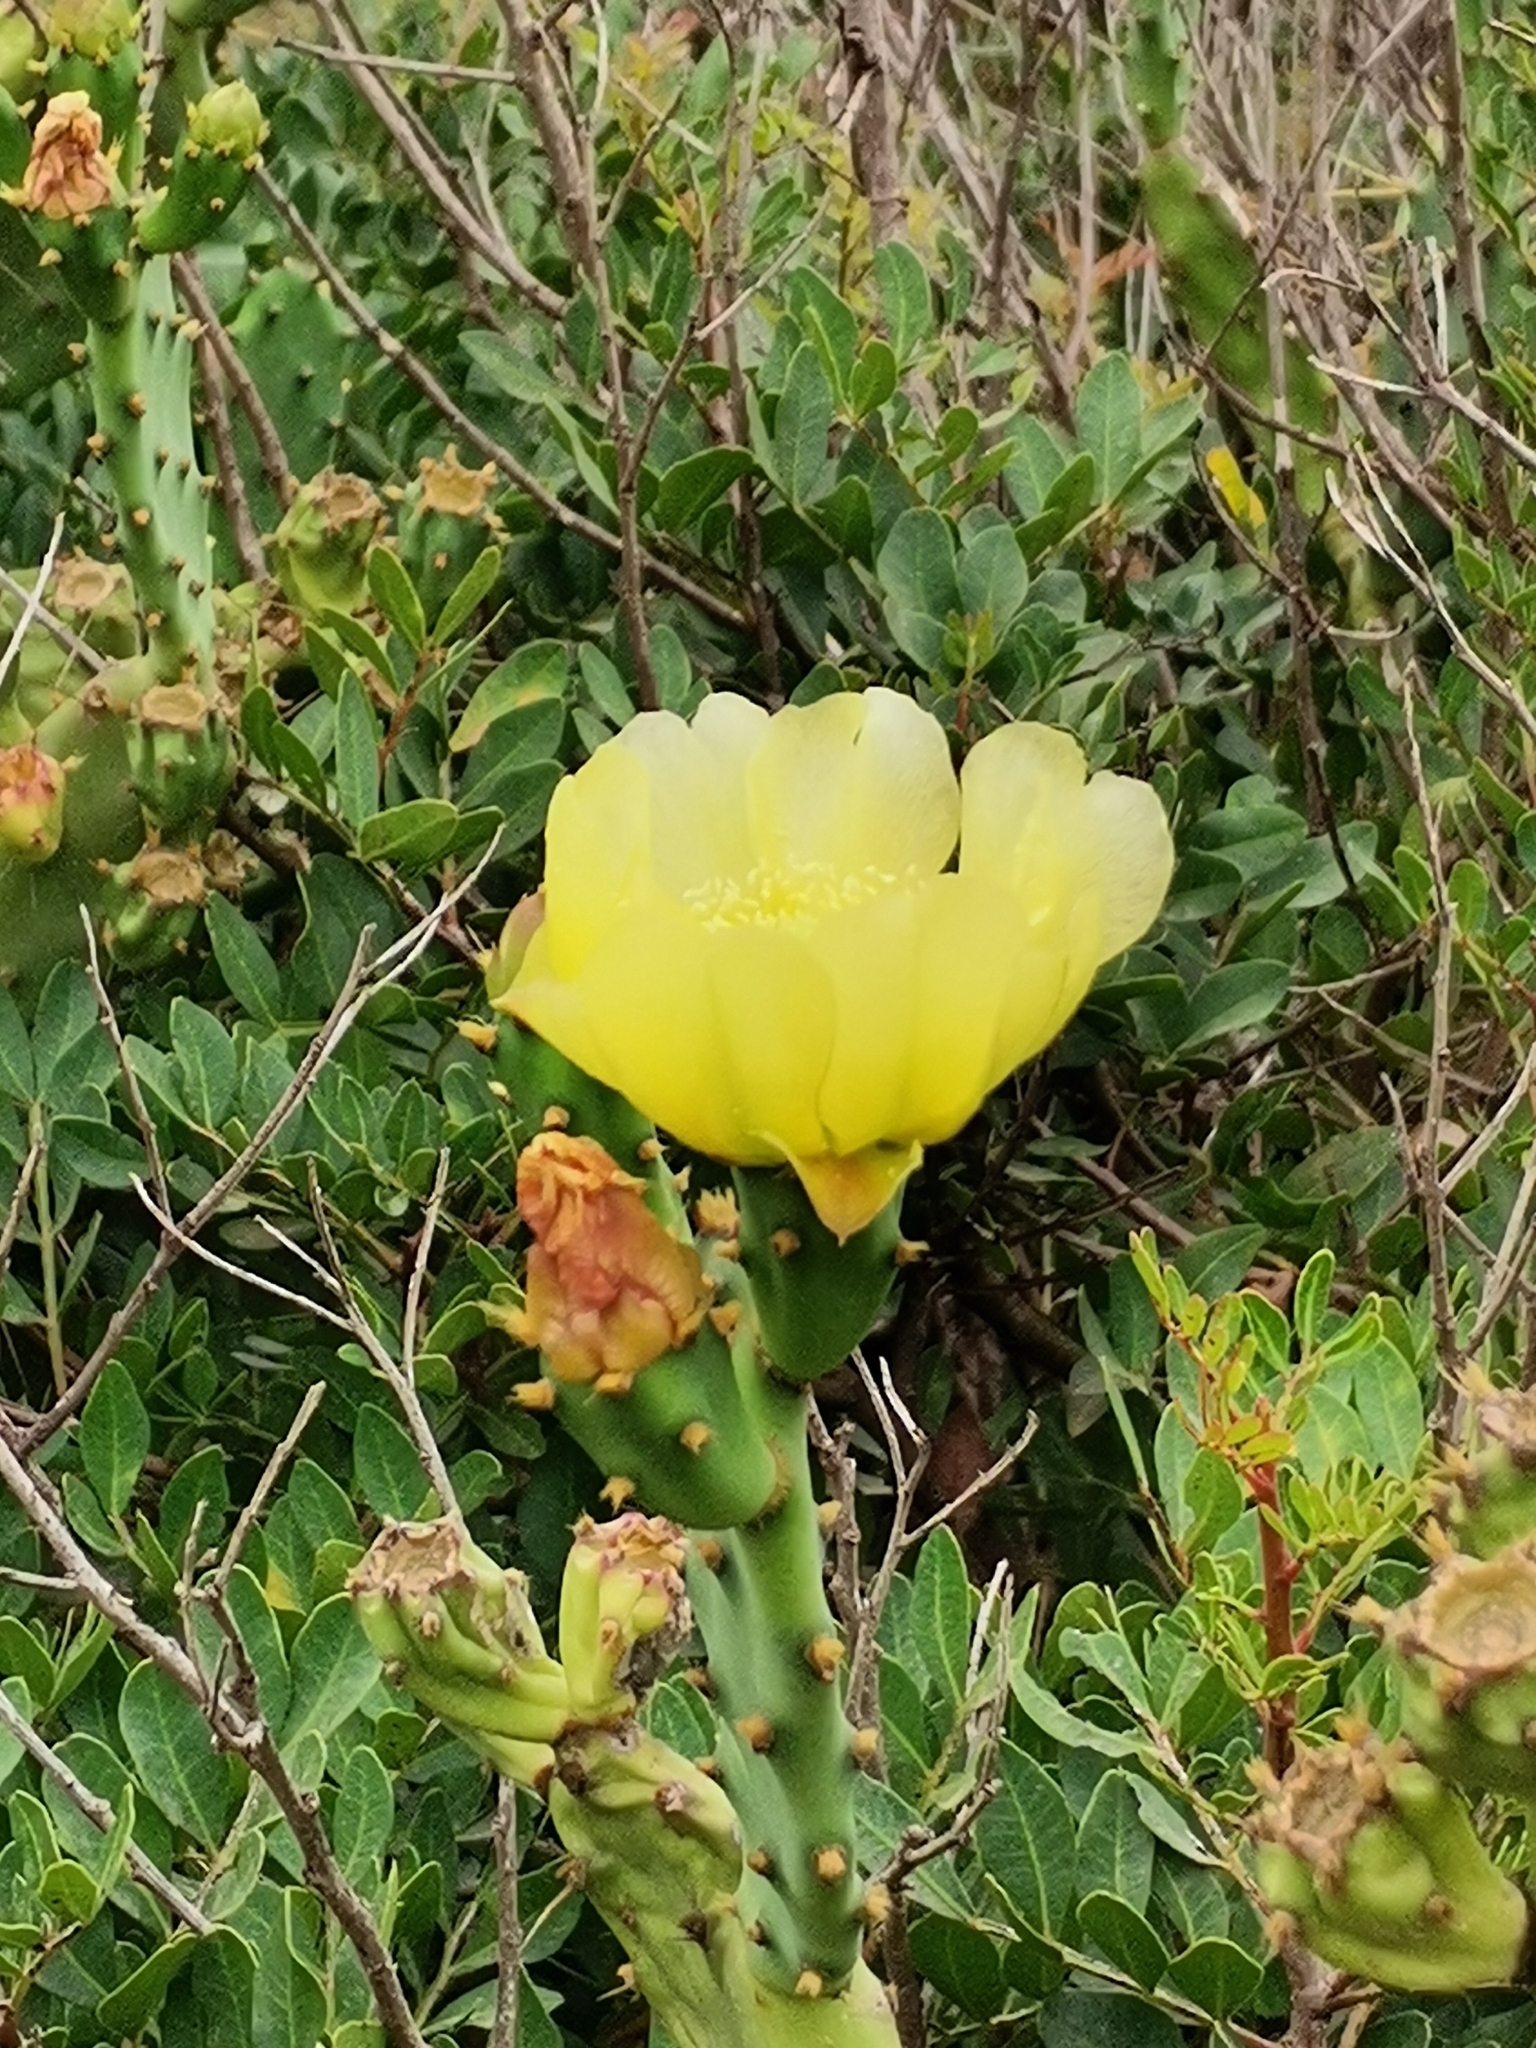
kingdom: Plantae
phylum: Tracheophyta
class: Magnoliopsida
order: Caryophyllales
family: Cactaceae
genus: Opuntia
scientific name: Opuntia stricta
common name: Erect pricklypear
